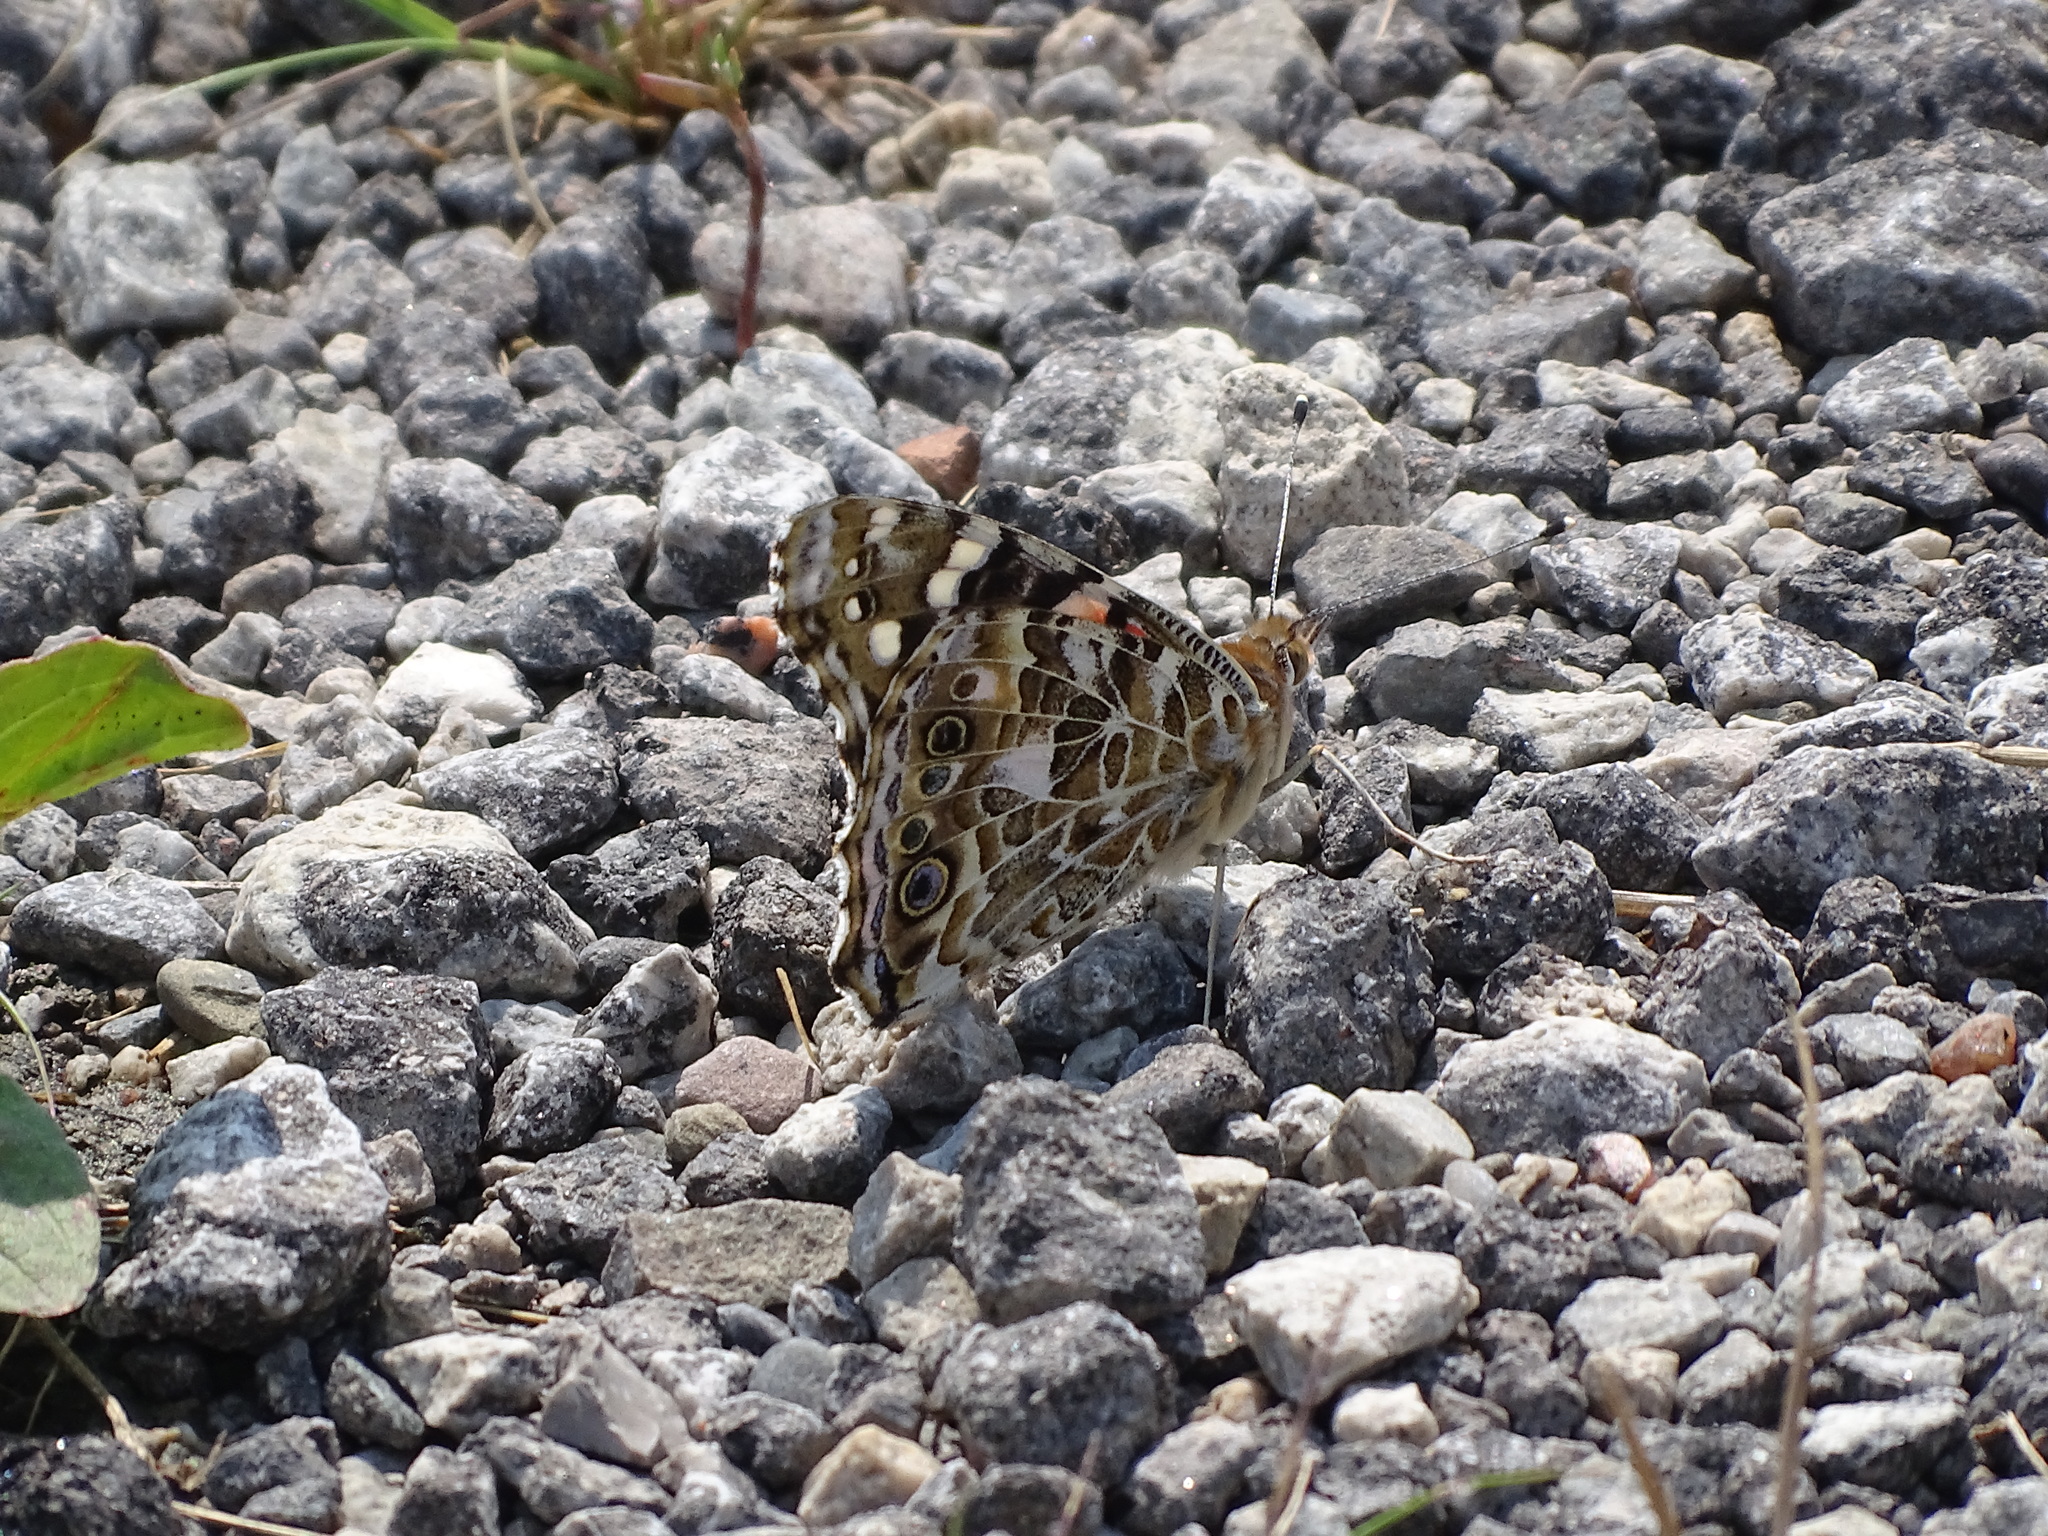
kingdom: Animalia
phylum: Arthropoda
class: Insecta
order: Lepidoptera
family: Nymphalidae
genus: Vanessa
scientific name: Vanessa cardui
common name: Painted lady
